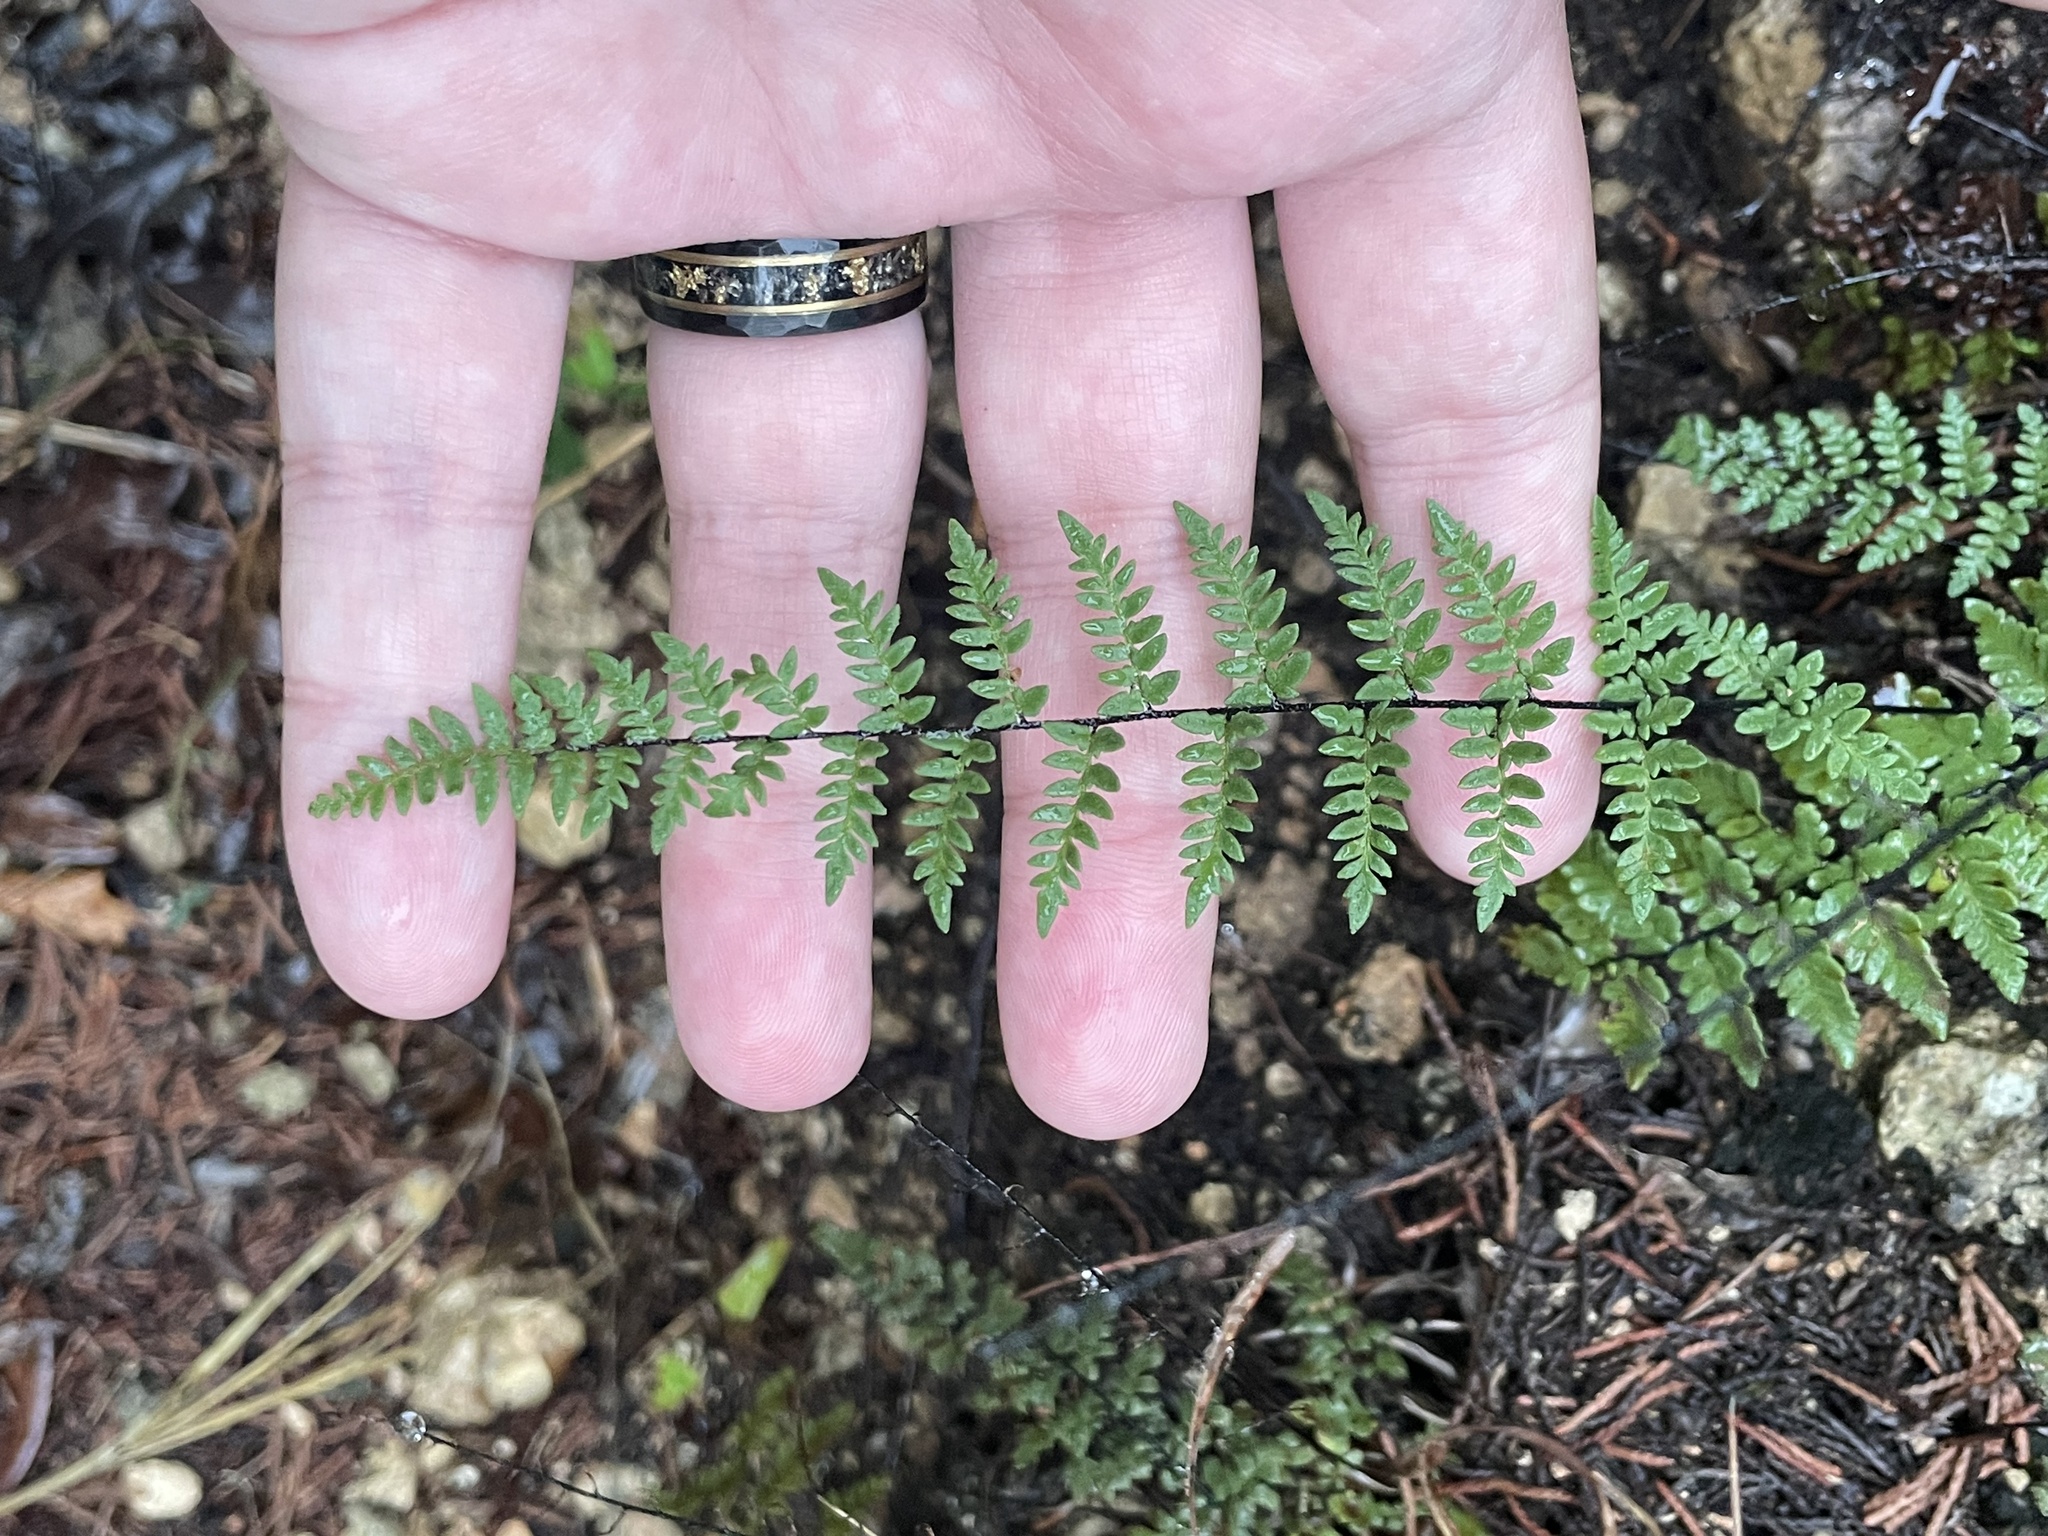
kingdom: Plantae
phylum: Tracheophyta
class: Polypodiopsida
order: Polypodiales
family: Pteridaceae
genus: Myriopteris
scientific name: Myriopteris alabamensis
